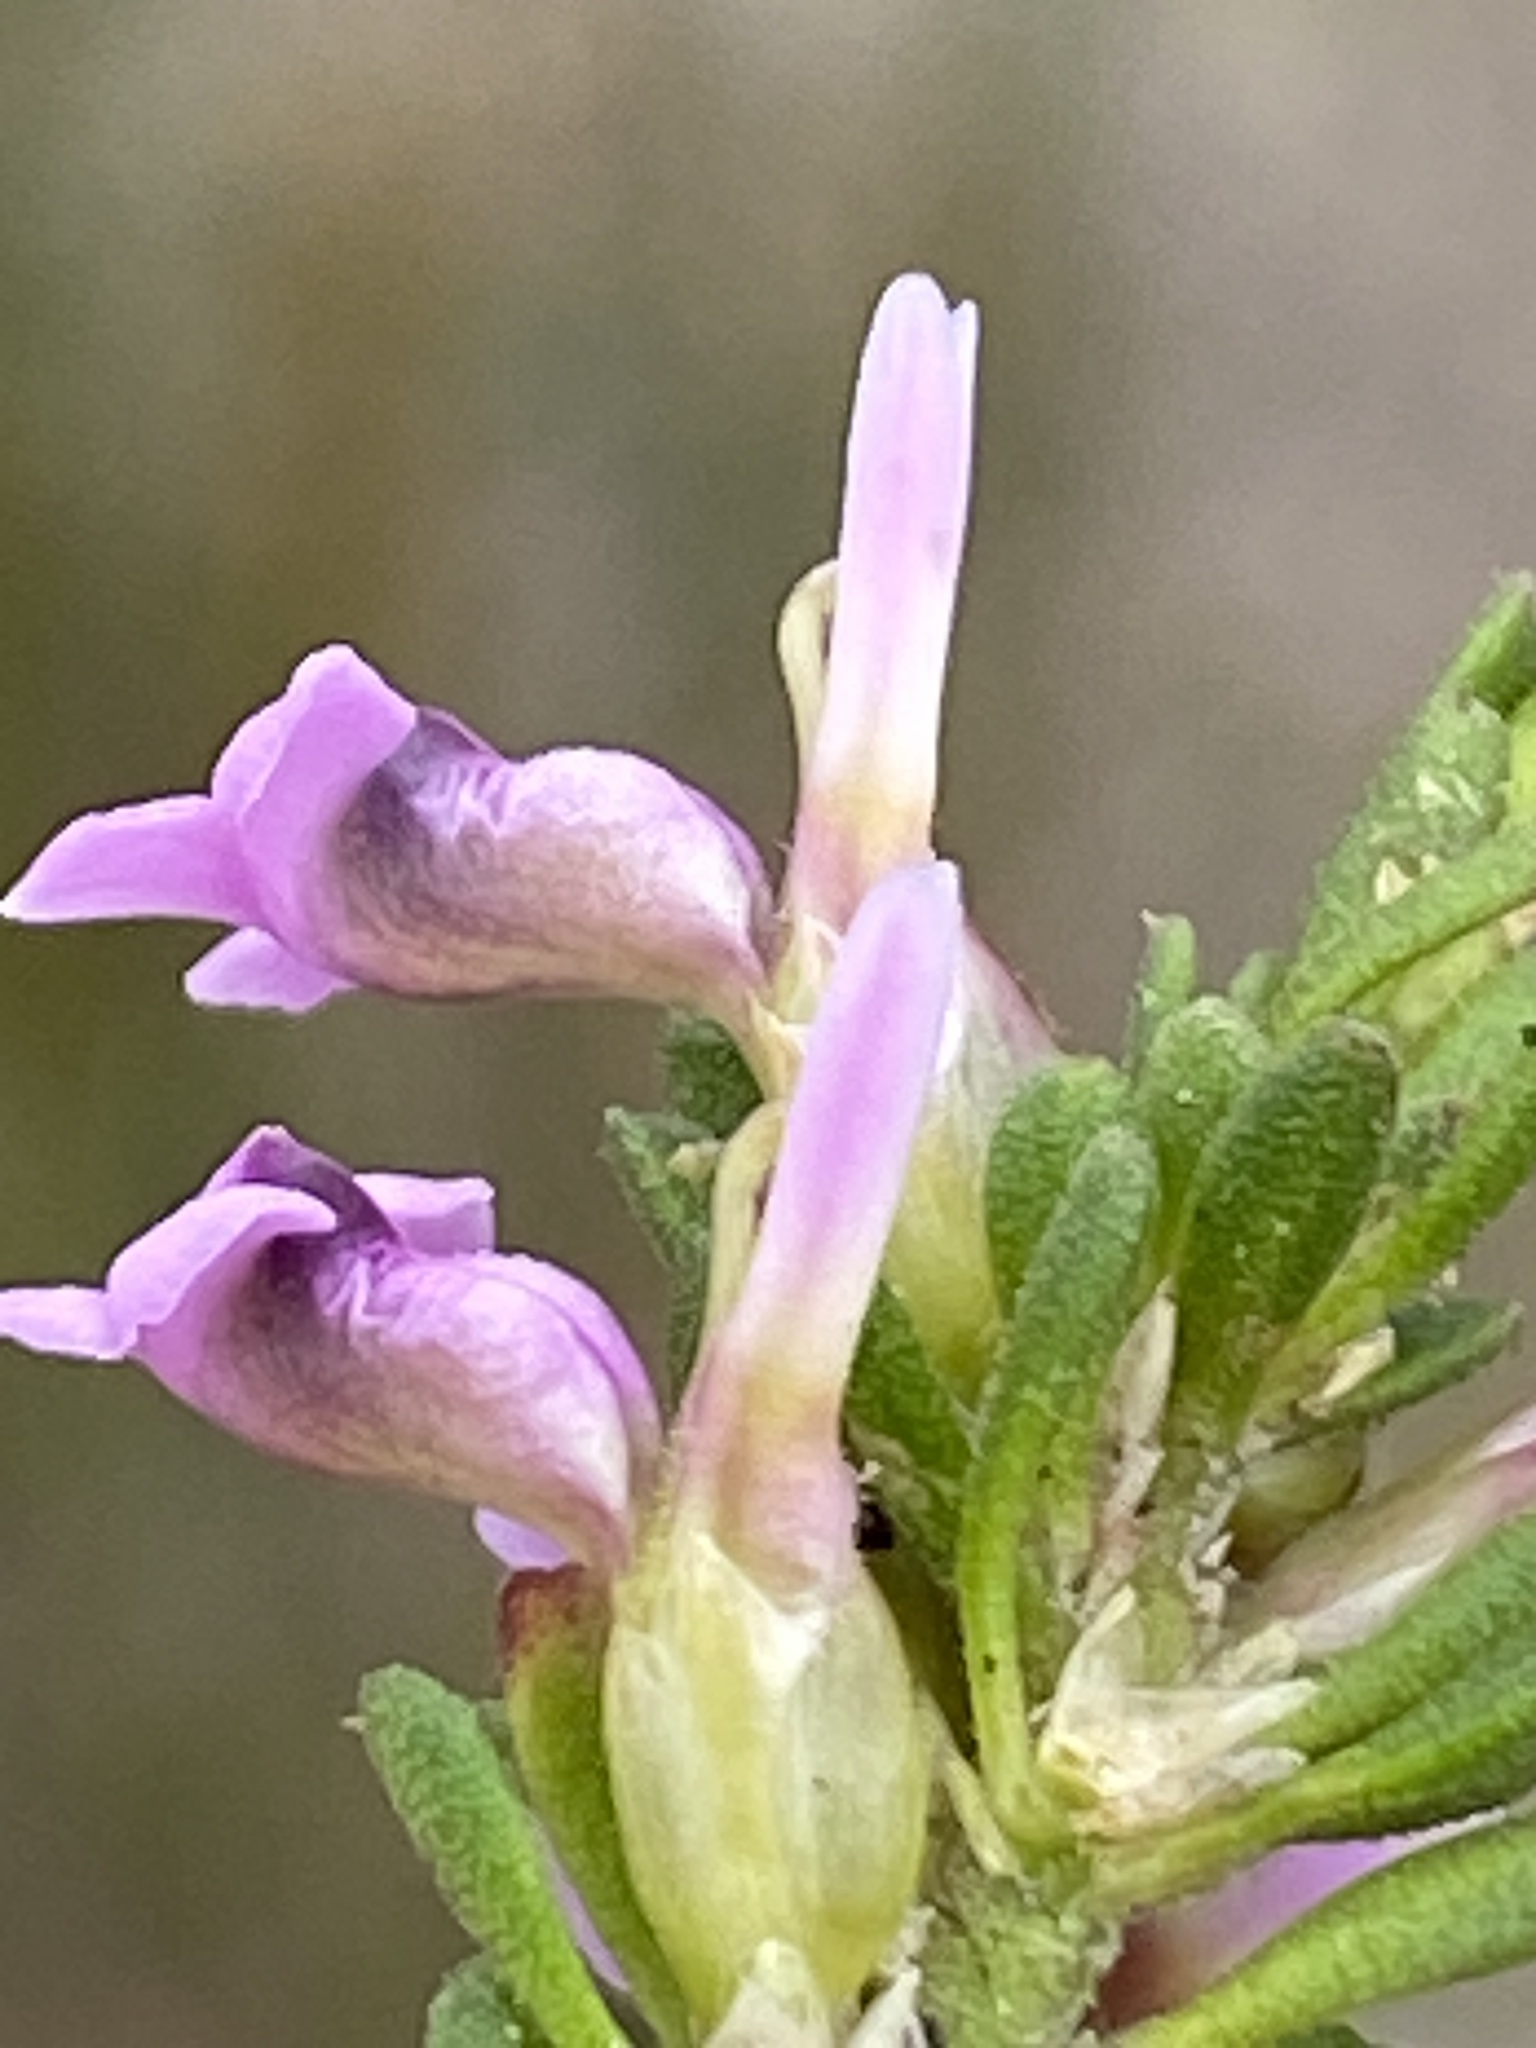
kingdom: Plantae
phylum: Tracheophyta
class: Magnoliopsida
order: Fabales
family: Polygalaceae
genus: Muraltia
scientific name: Muraltia barkerae
